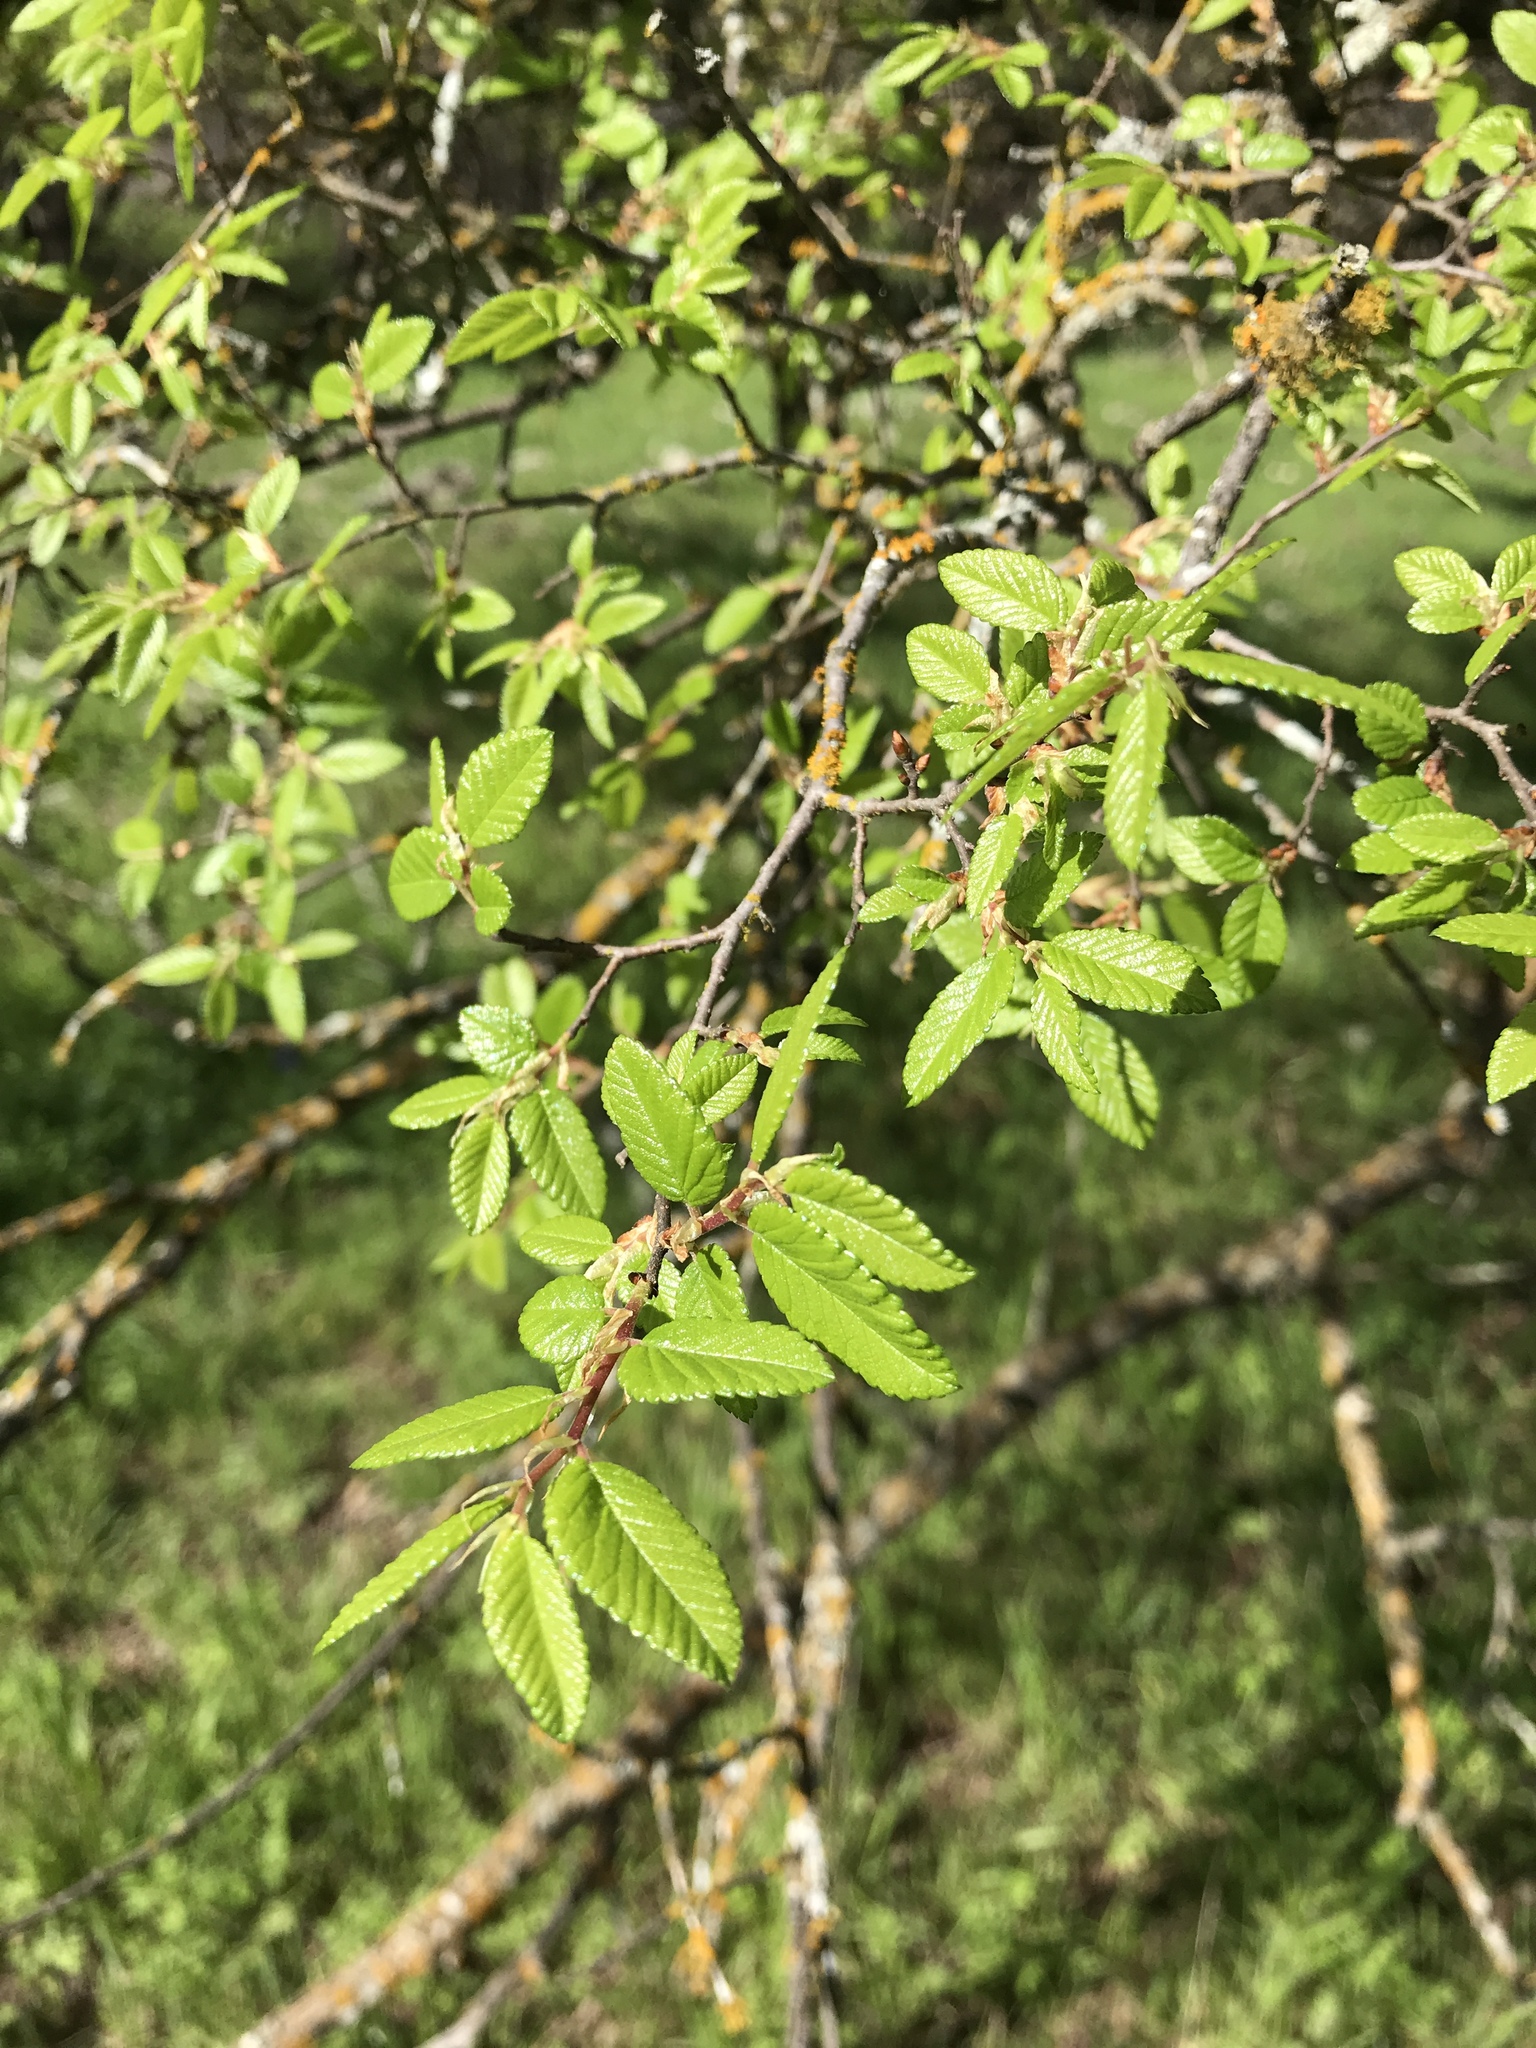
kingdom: Plantae
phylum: Tracheophyta
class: Magnoliopsida
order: Rosales
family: Ulmaceae
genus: Ulmus
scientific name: Ulmus crassifolia
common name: Basket elm
